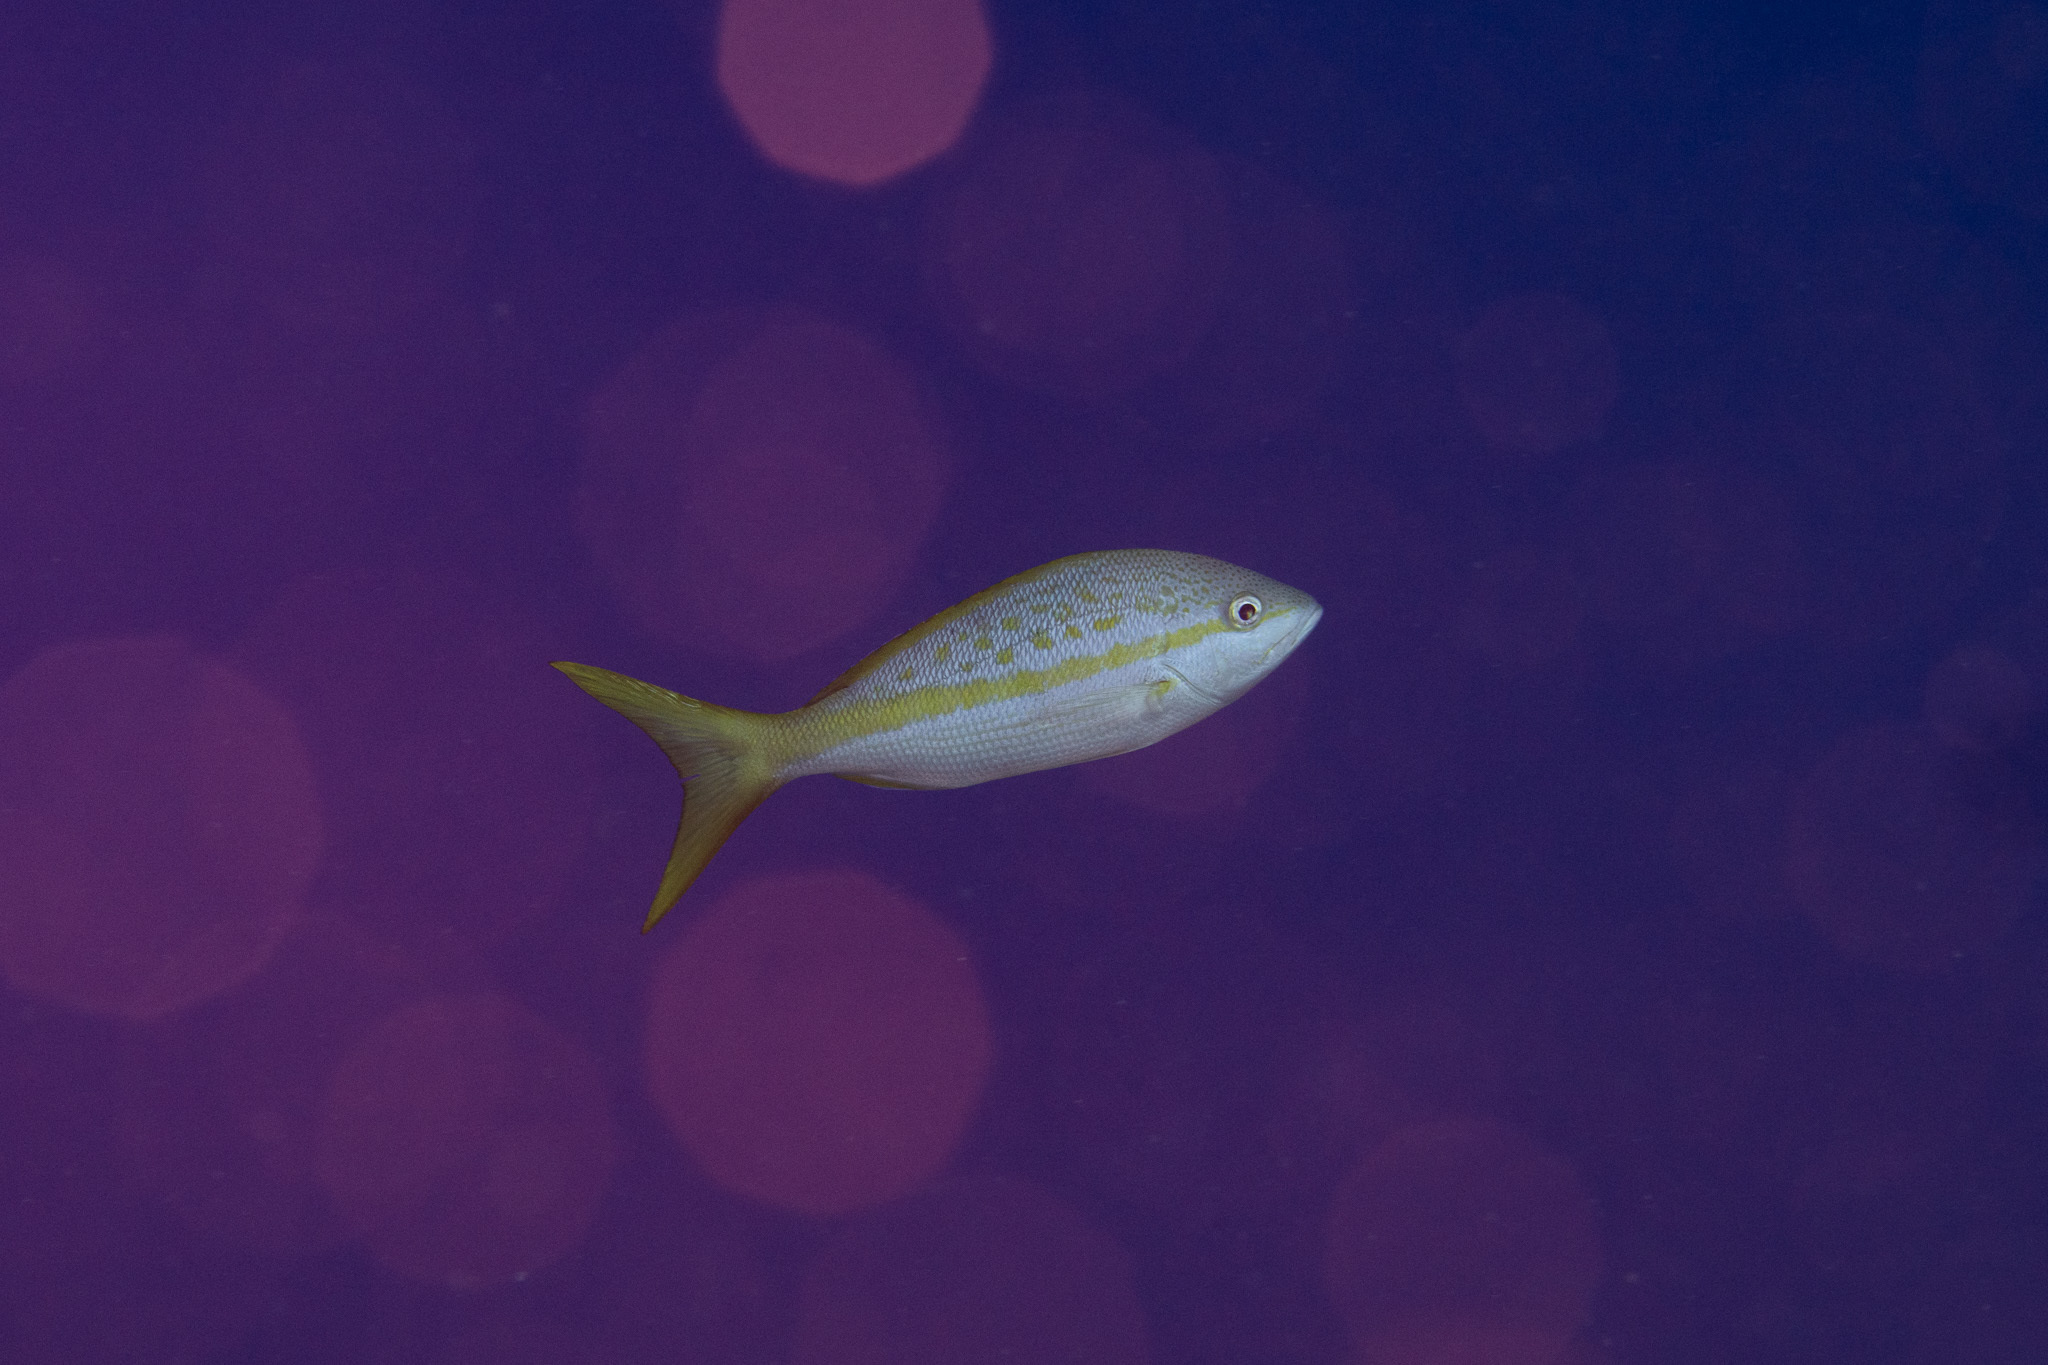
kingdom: Animalia
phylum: Chordata
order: Perciformes
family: Lutjanidae
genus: Ocyurus
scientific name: Ocyurus chrysurus
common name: Yellowtail snapper
